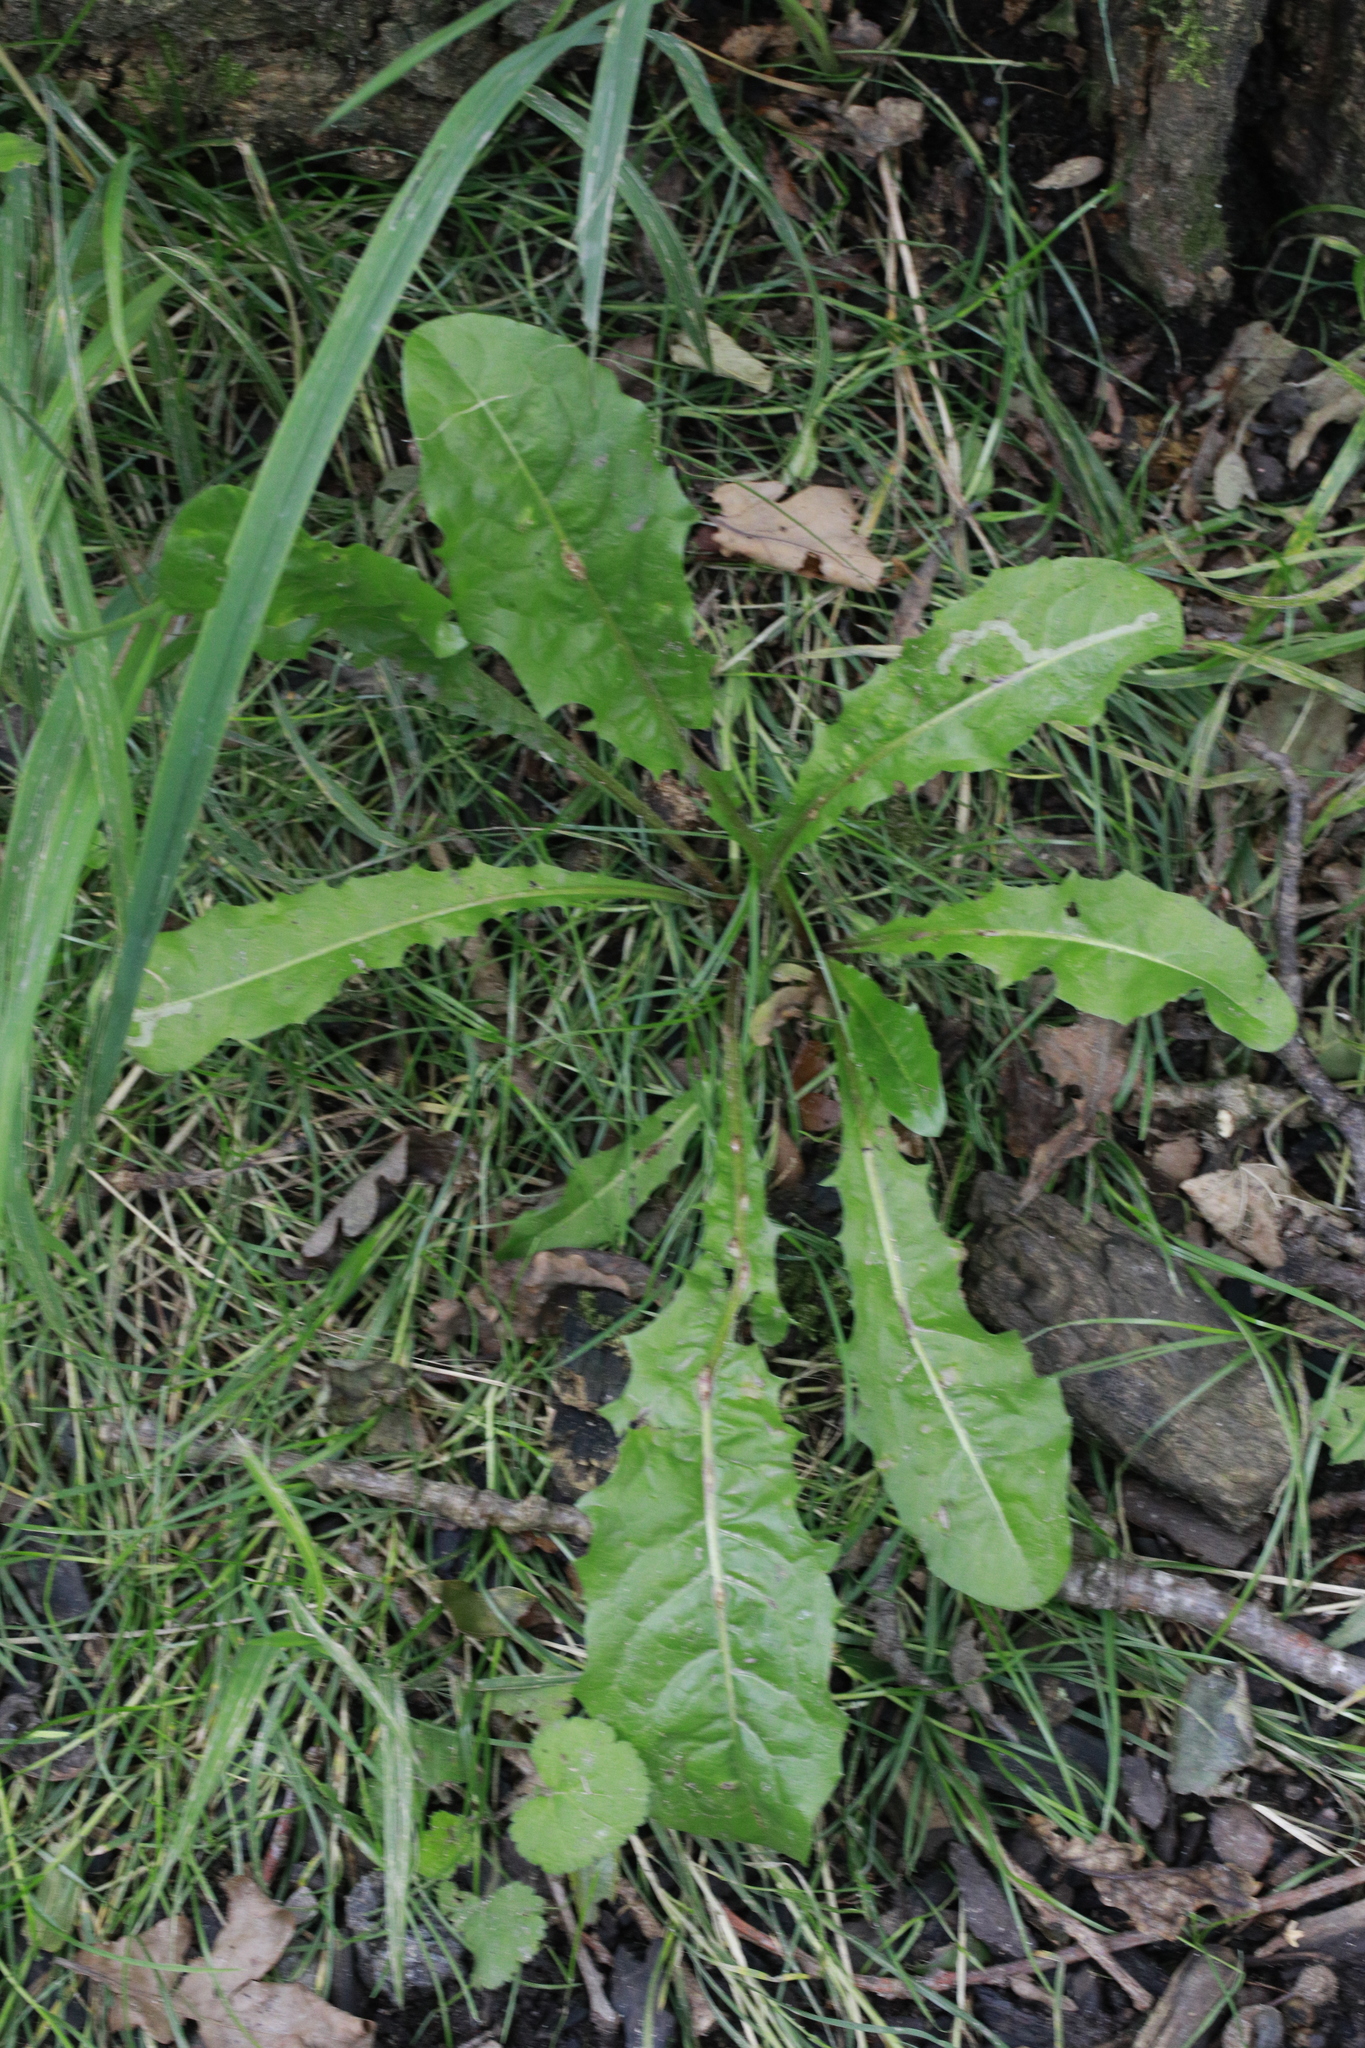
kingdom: Plantae
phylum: Tracheophyta
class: Magnoliopsida
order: Asterales
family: Asteraceae
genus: Taraxacum
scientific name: Taraxacum officinale
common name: Common dandelion
